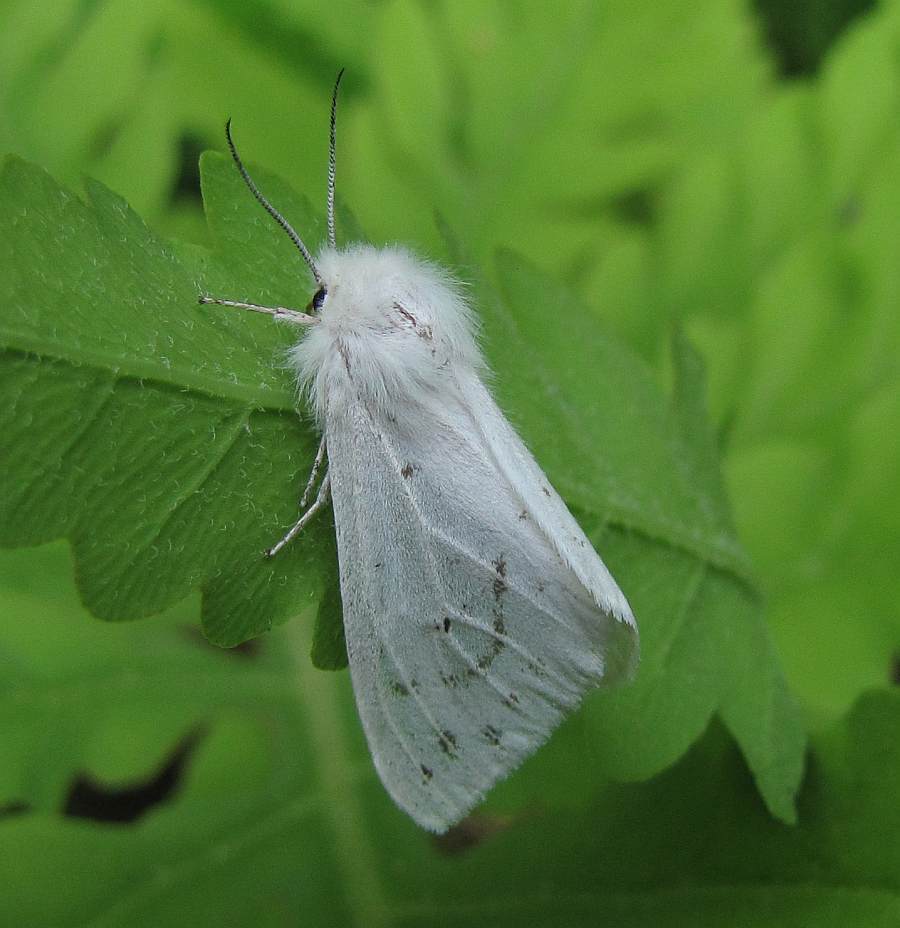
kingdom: Animalia
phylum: Arthropoda
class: Insecta
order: Lepidoptera
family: Erebidae
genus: Spilosoma
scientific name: Spilosoma virginica
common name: Virginia tiger moth
